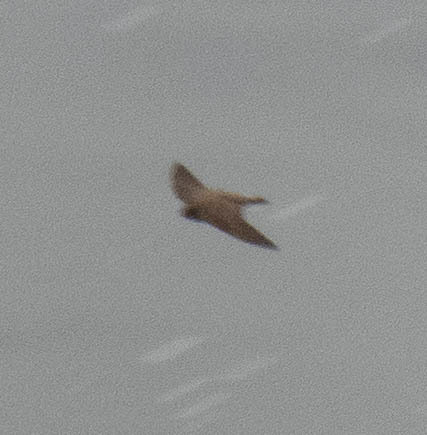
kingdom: Animalia
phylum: Chordata
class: Aves
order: Passeriformes
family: Hirundinidae
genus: Stelgidopteryx
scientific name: Stelgidopteryx serripennis
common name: Northern rough-winged swallow
